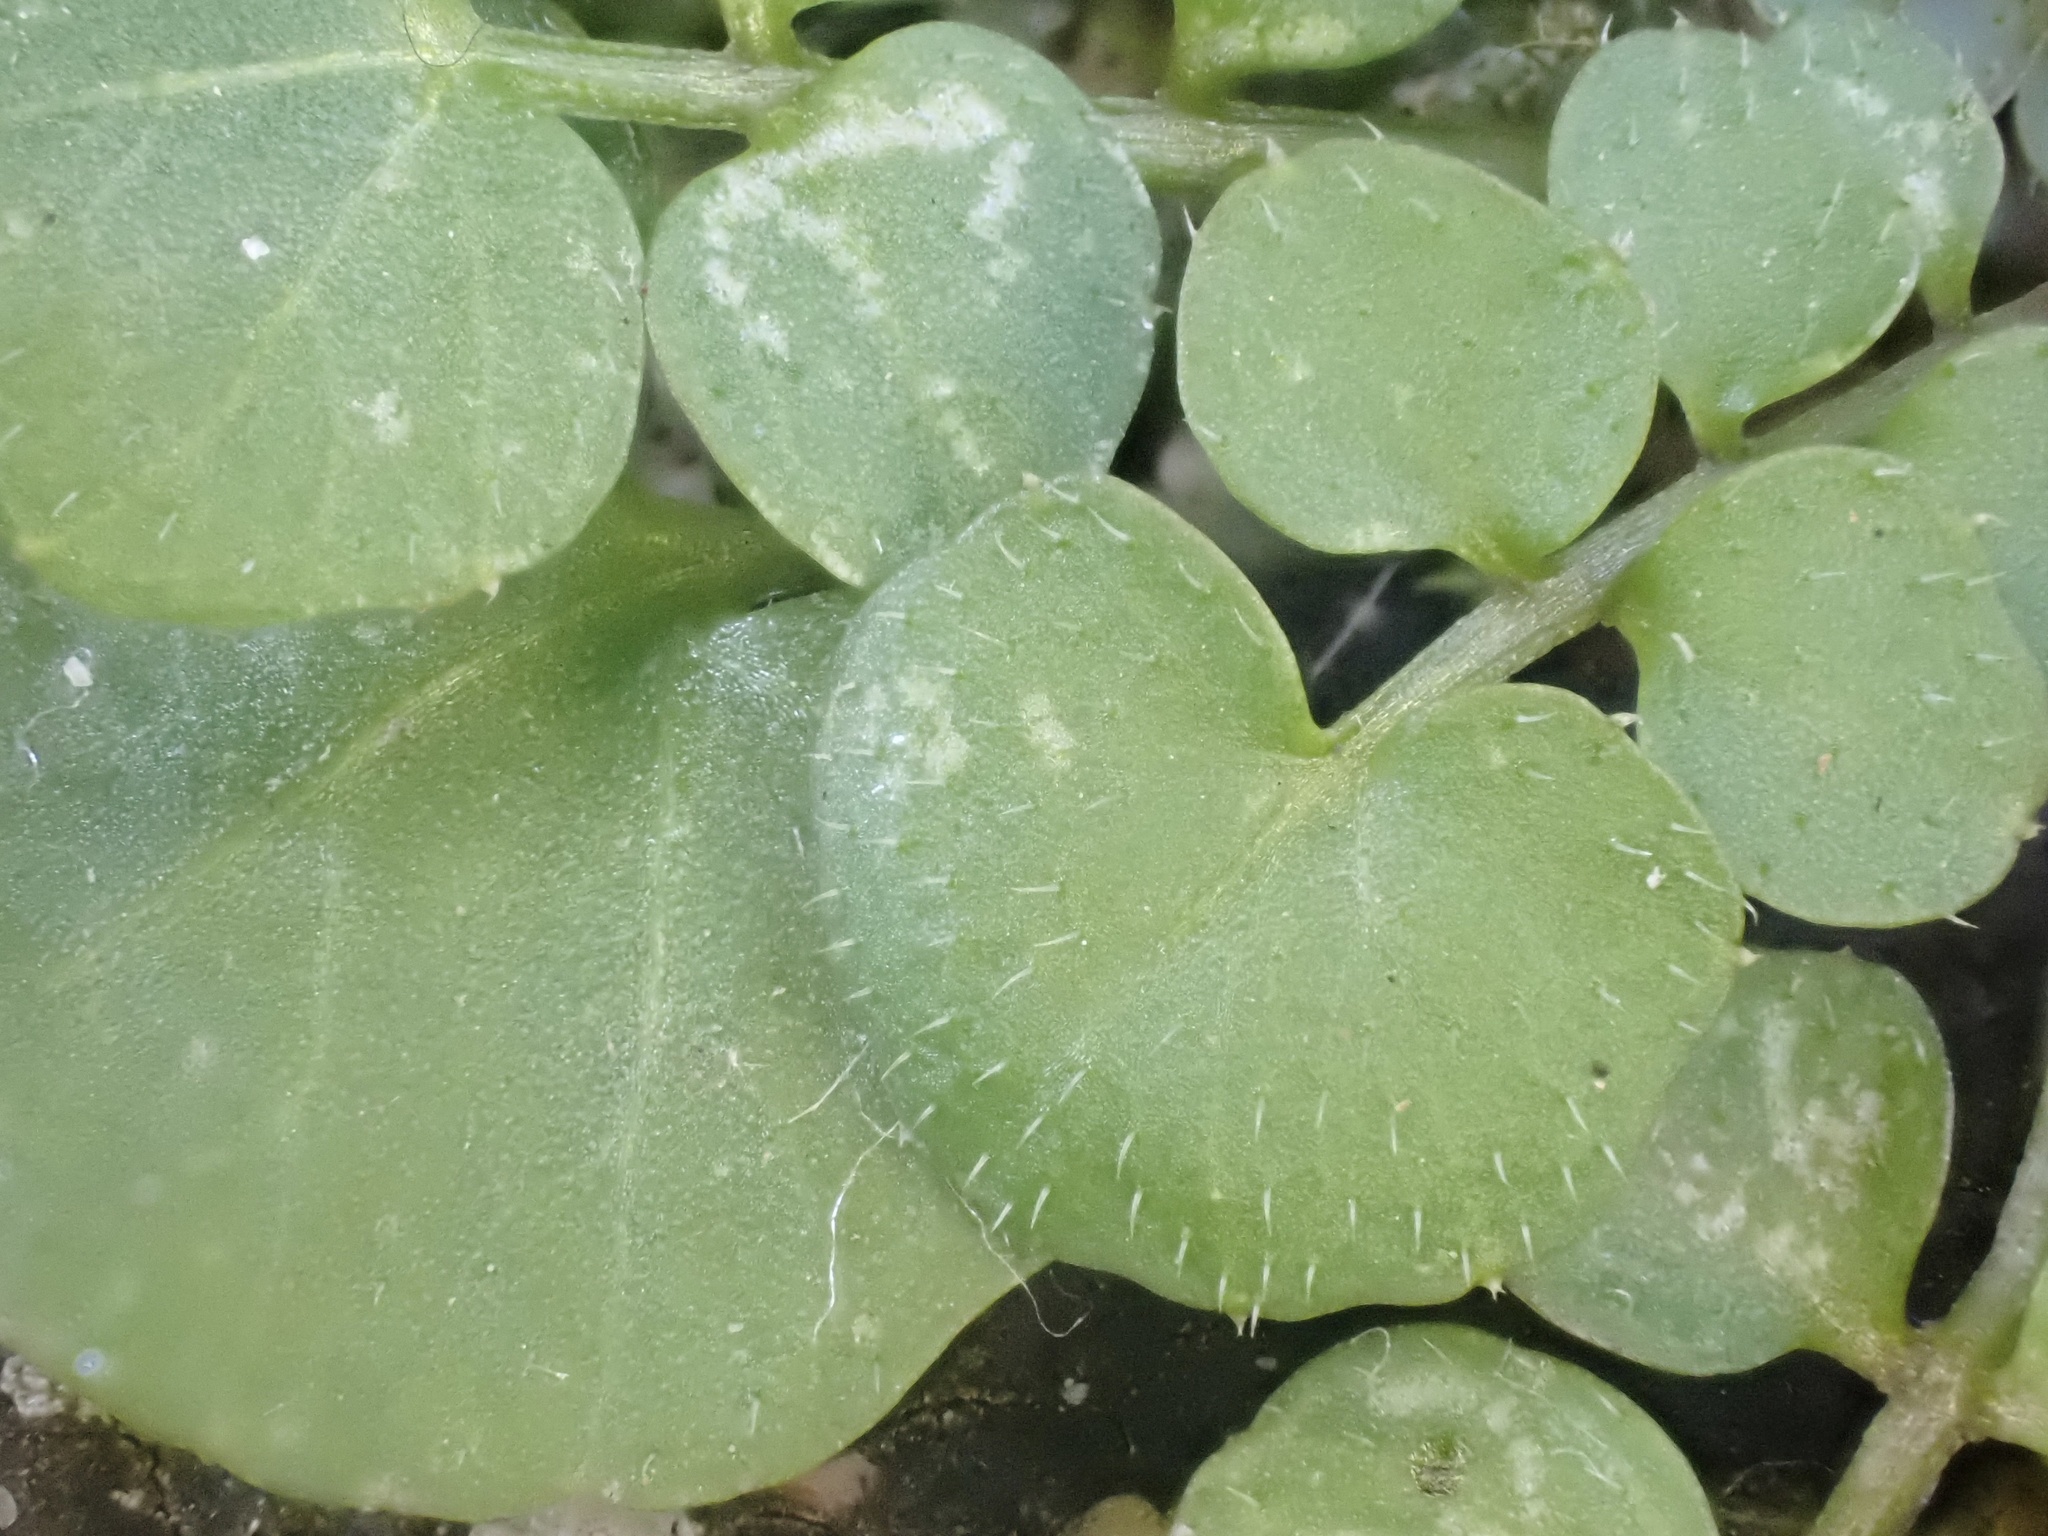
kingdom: Plantae
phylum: Tracheophyta
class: Magnoliopsida
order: Brassicales
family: Brassicaceae
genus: Cardamine
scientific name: Cardamine hirsuta
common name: Hairy bittercress
